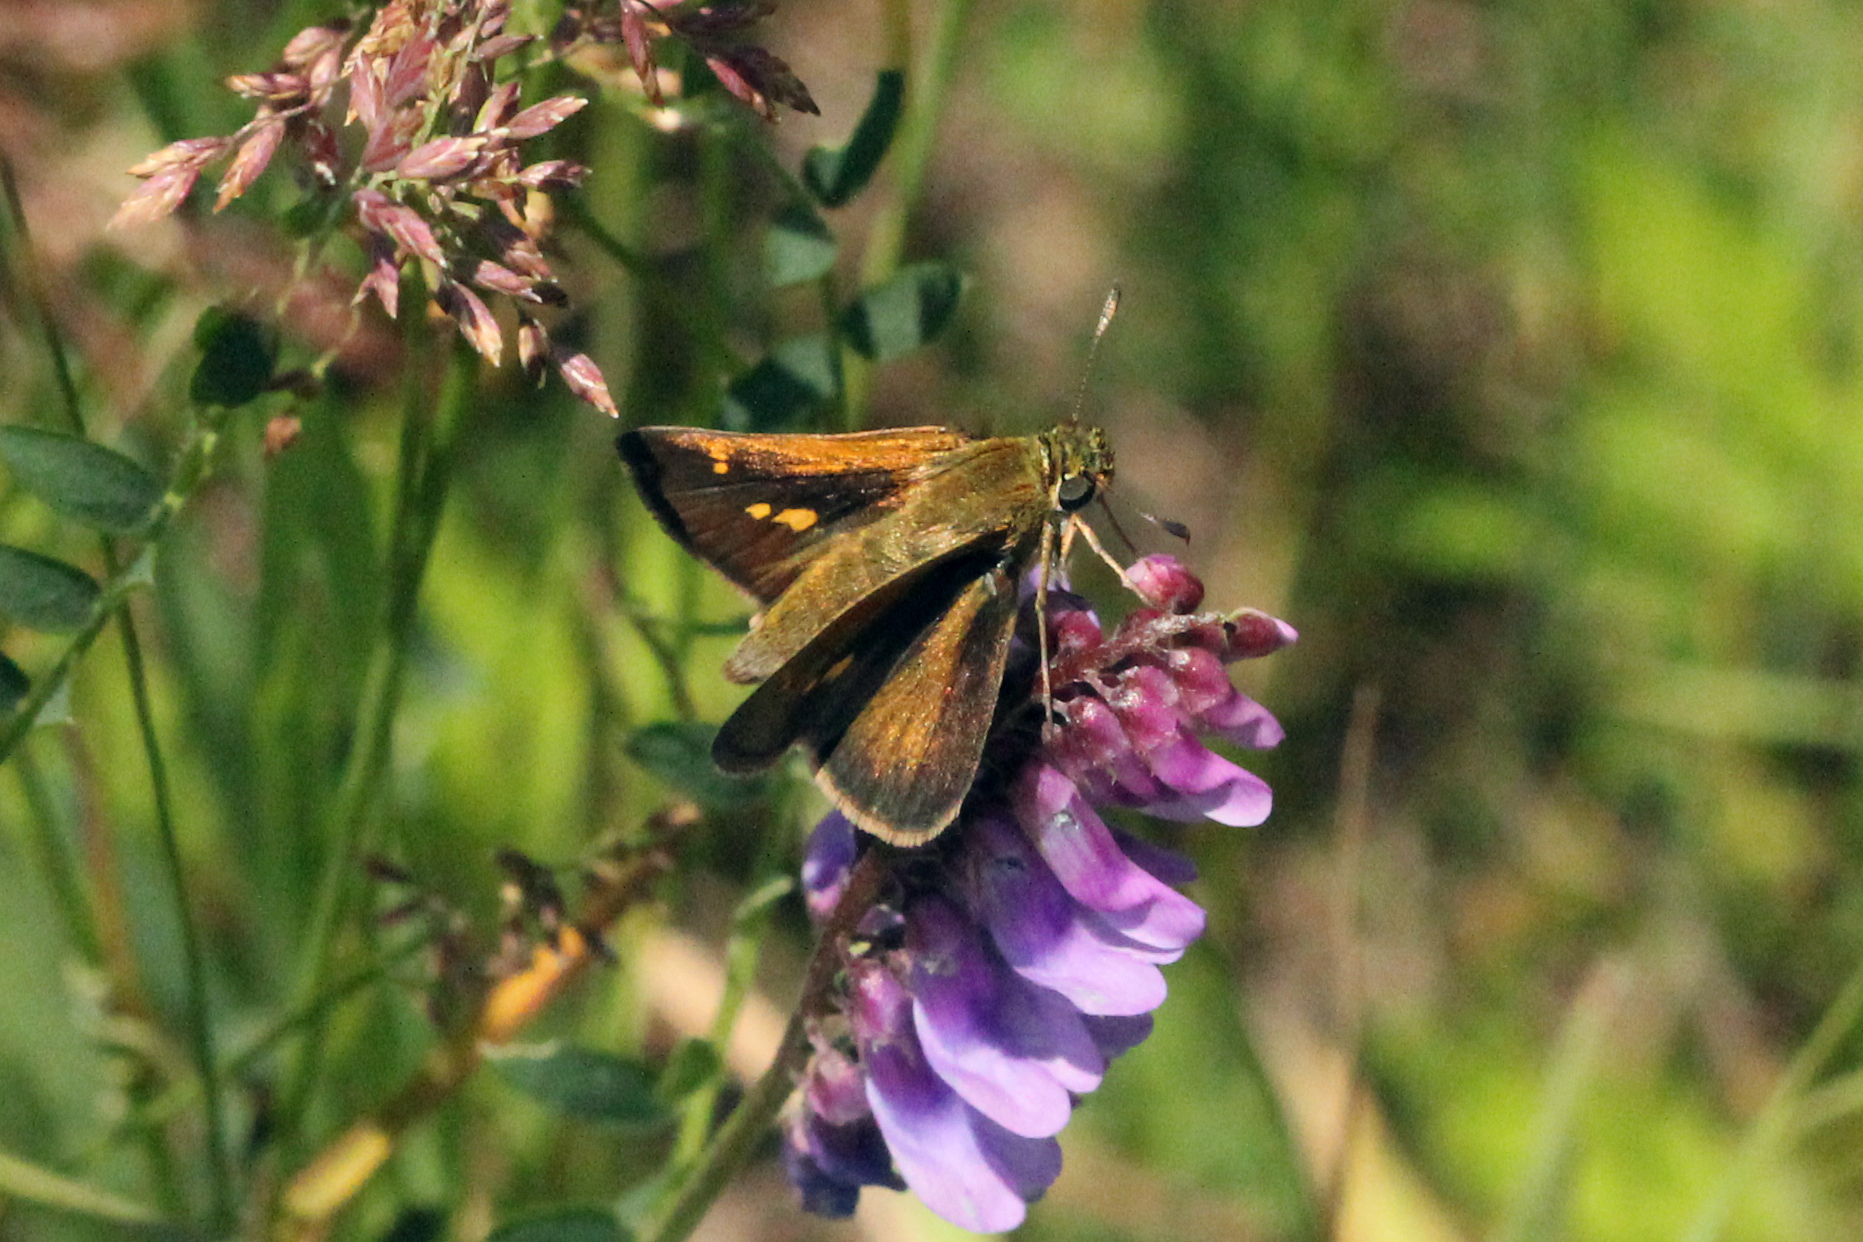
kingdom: Animalia
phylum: Arthropoda
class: Insecta
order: Lepidoptera
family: Hesperiidae
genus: Polites
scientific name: Polites themistocles
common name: Tawny-edged skipper
